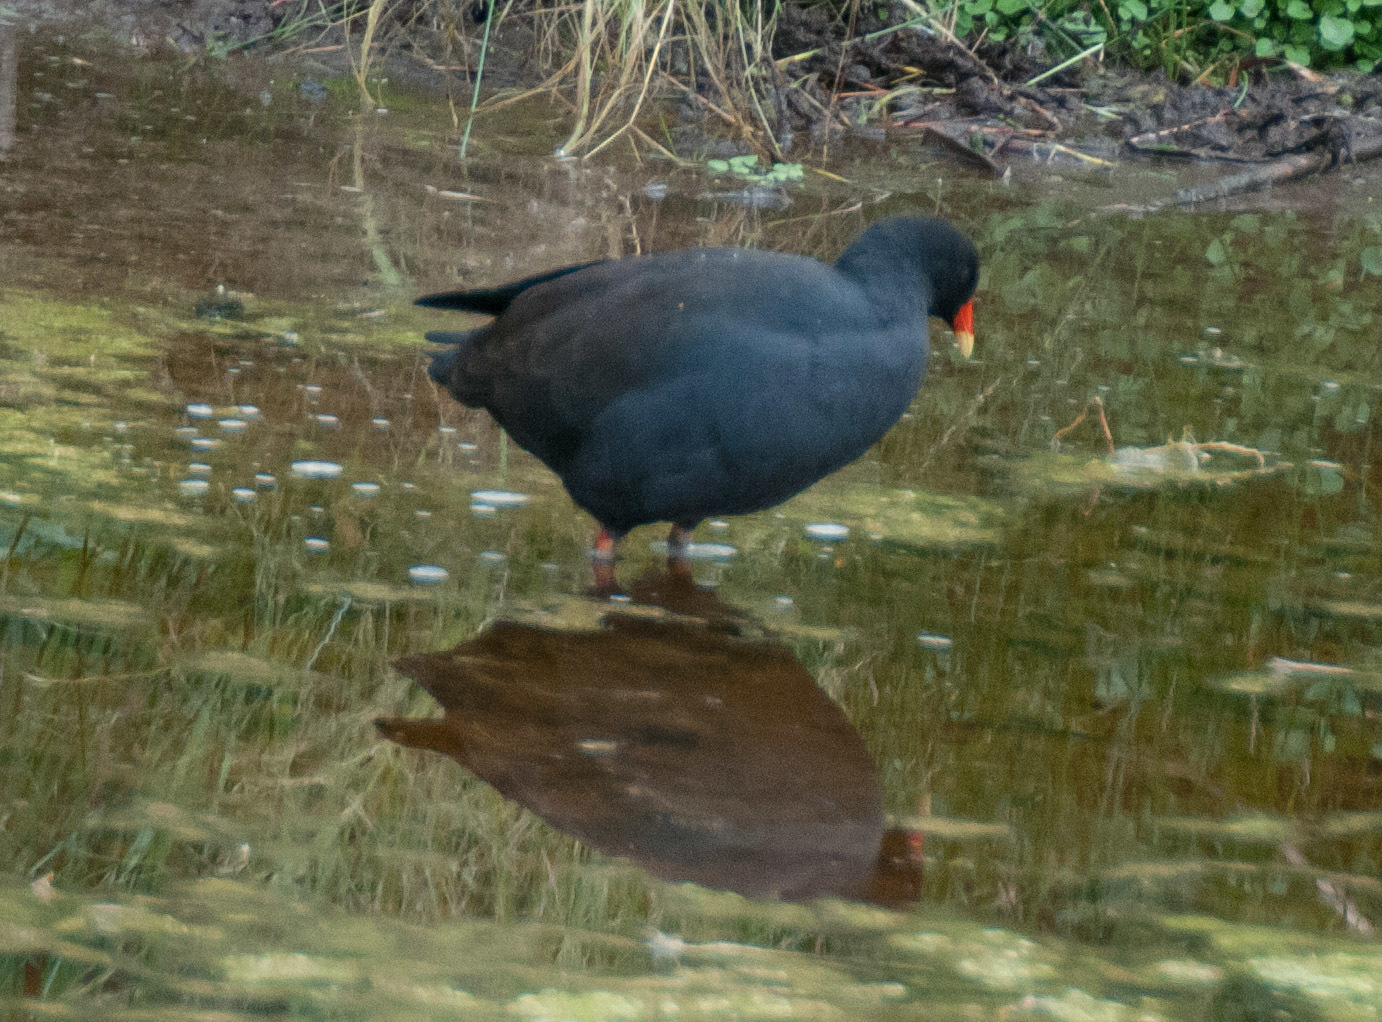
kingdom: Animalia
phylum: Chordata
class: Aves
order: Gruiformes
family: Rallidae
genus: Gallinula
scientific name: Gallinula tenebrosa
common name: Dusky moorhen
